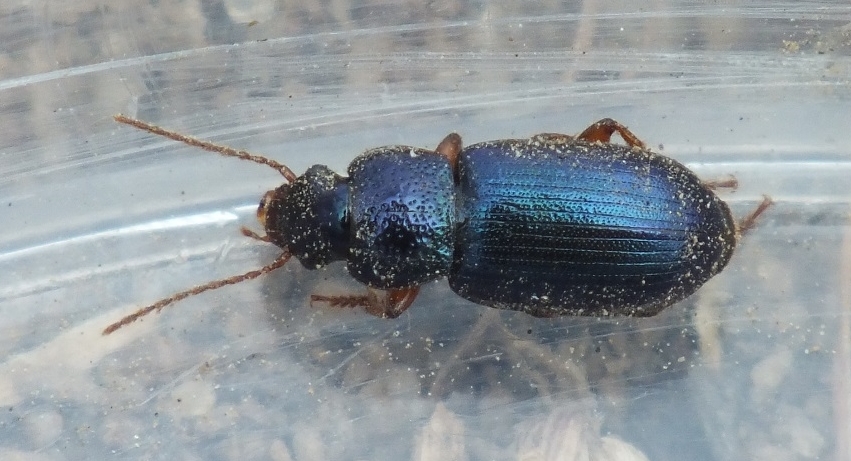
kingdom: Animalia
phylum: Arthropoda
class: Insecta
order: Coleoptera
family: Carabidae
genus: Ophonus
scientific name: Ophonus azureus
